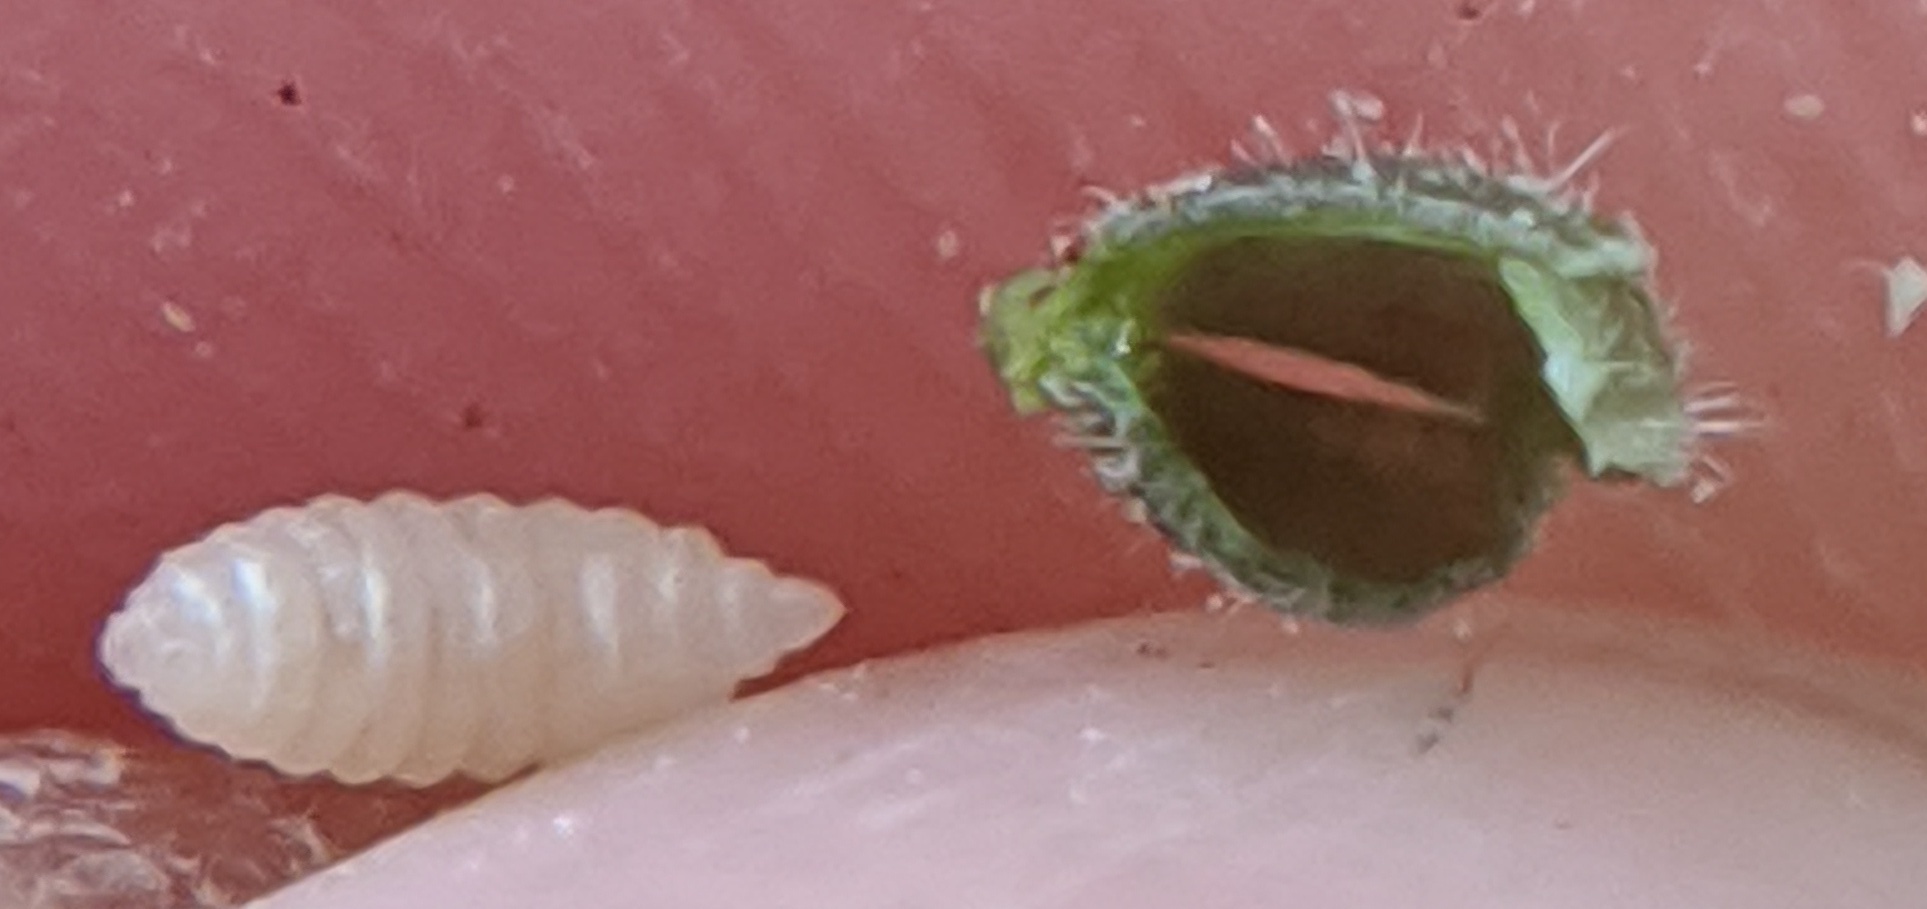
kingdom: Animalia
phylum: Arthropoda
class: Insecta
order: Diptera
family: Cecidomyiidae
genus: Caryomyia
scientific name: Caryomyia viscidolium
